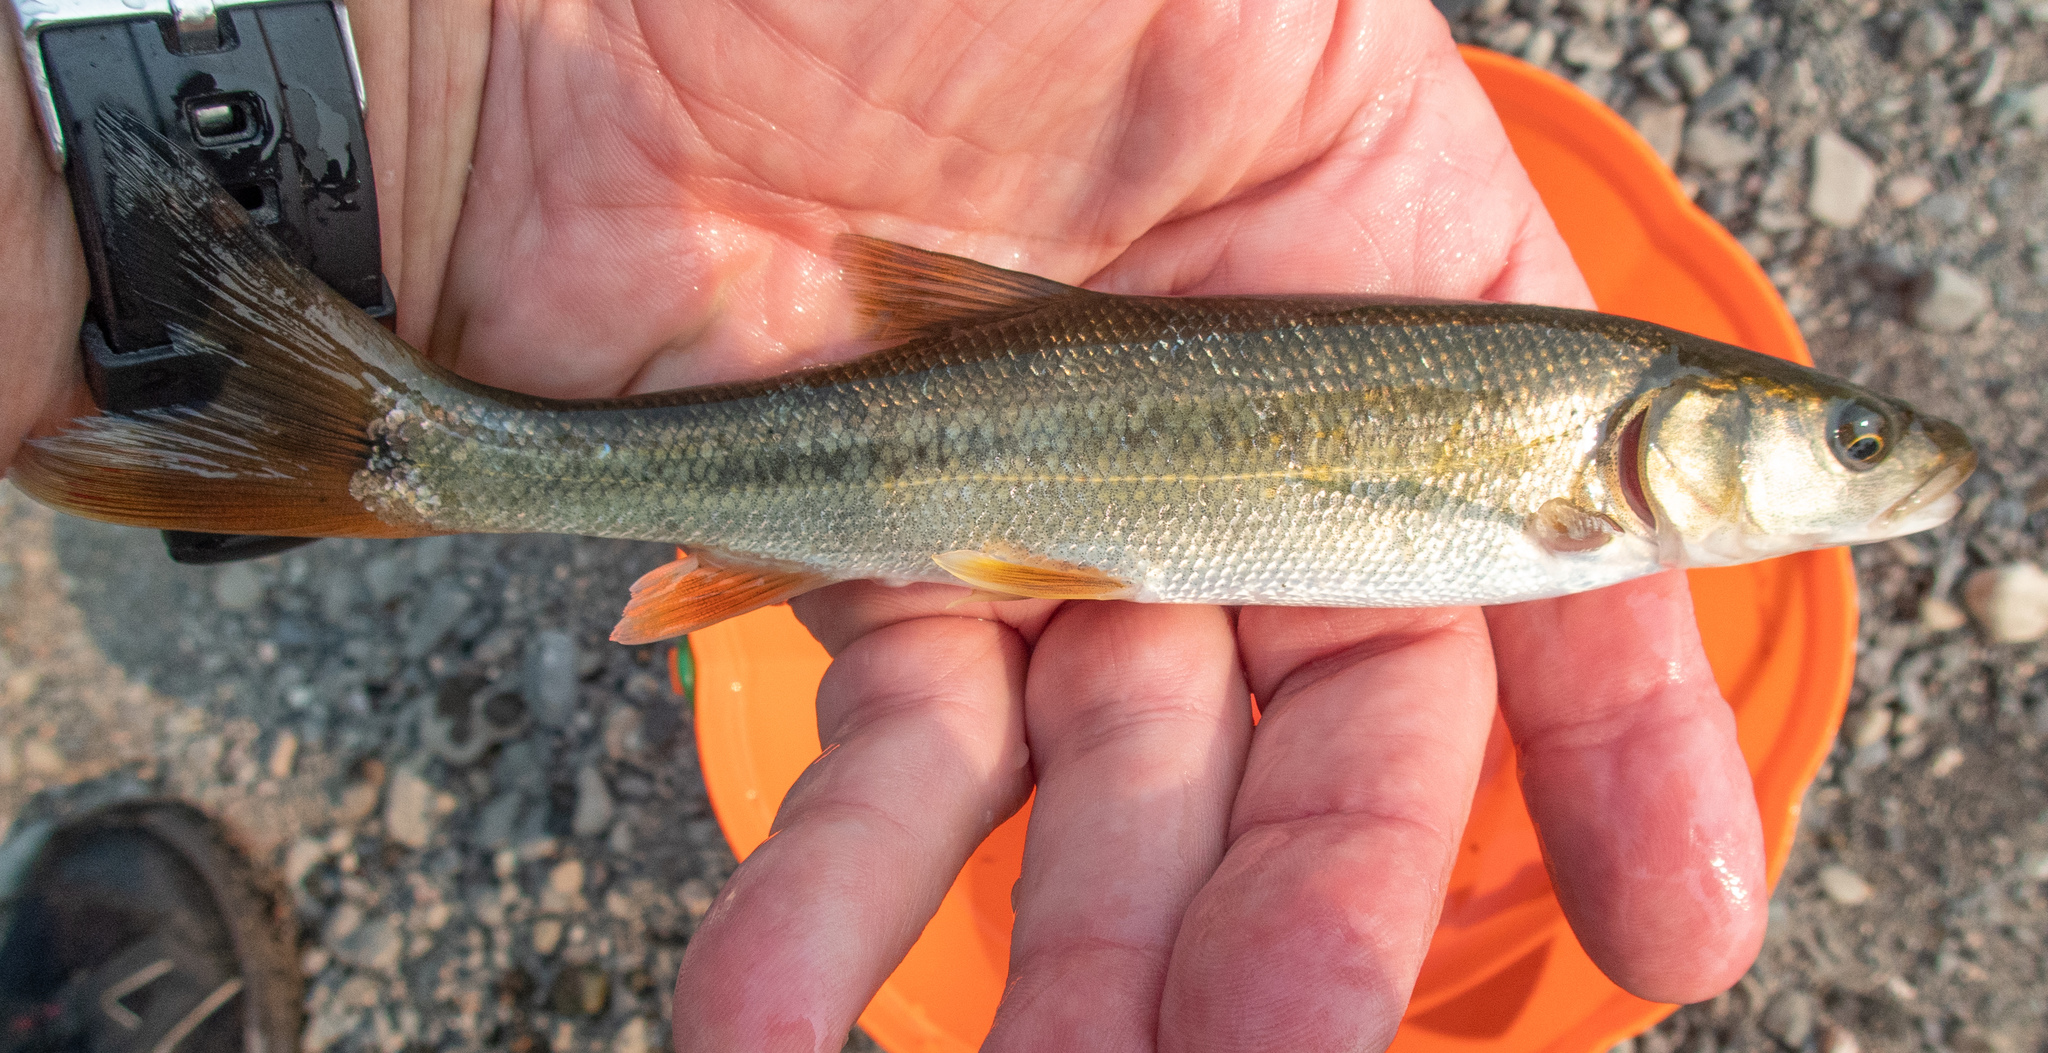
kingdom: Animalia
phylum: Chordata
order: Cypriniformes
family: Cyprinidae
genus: Ptychocheilus
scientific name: Ptychocheilus grandis
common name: Sacramento pikeminnow
